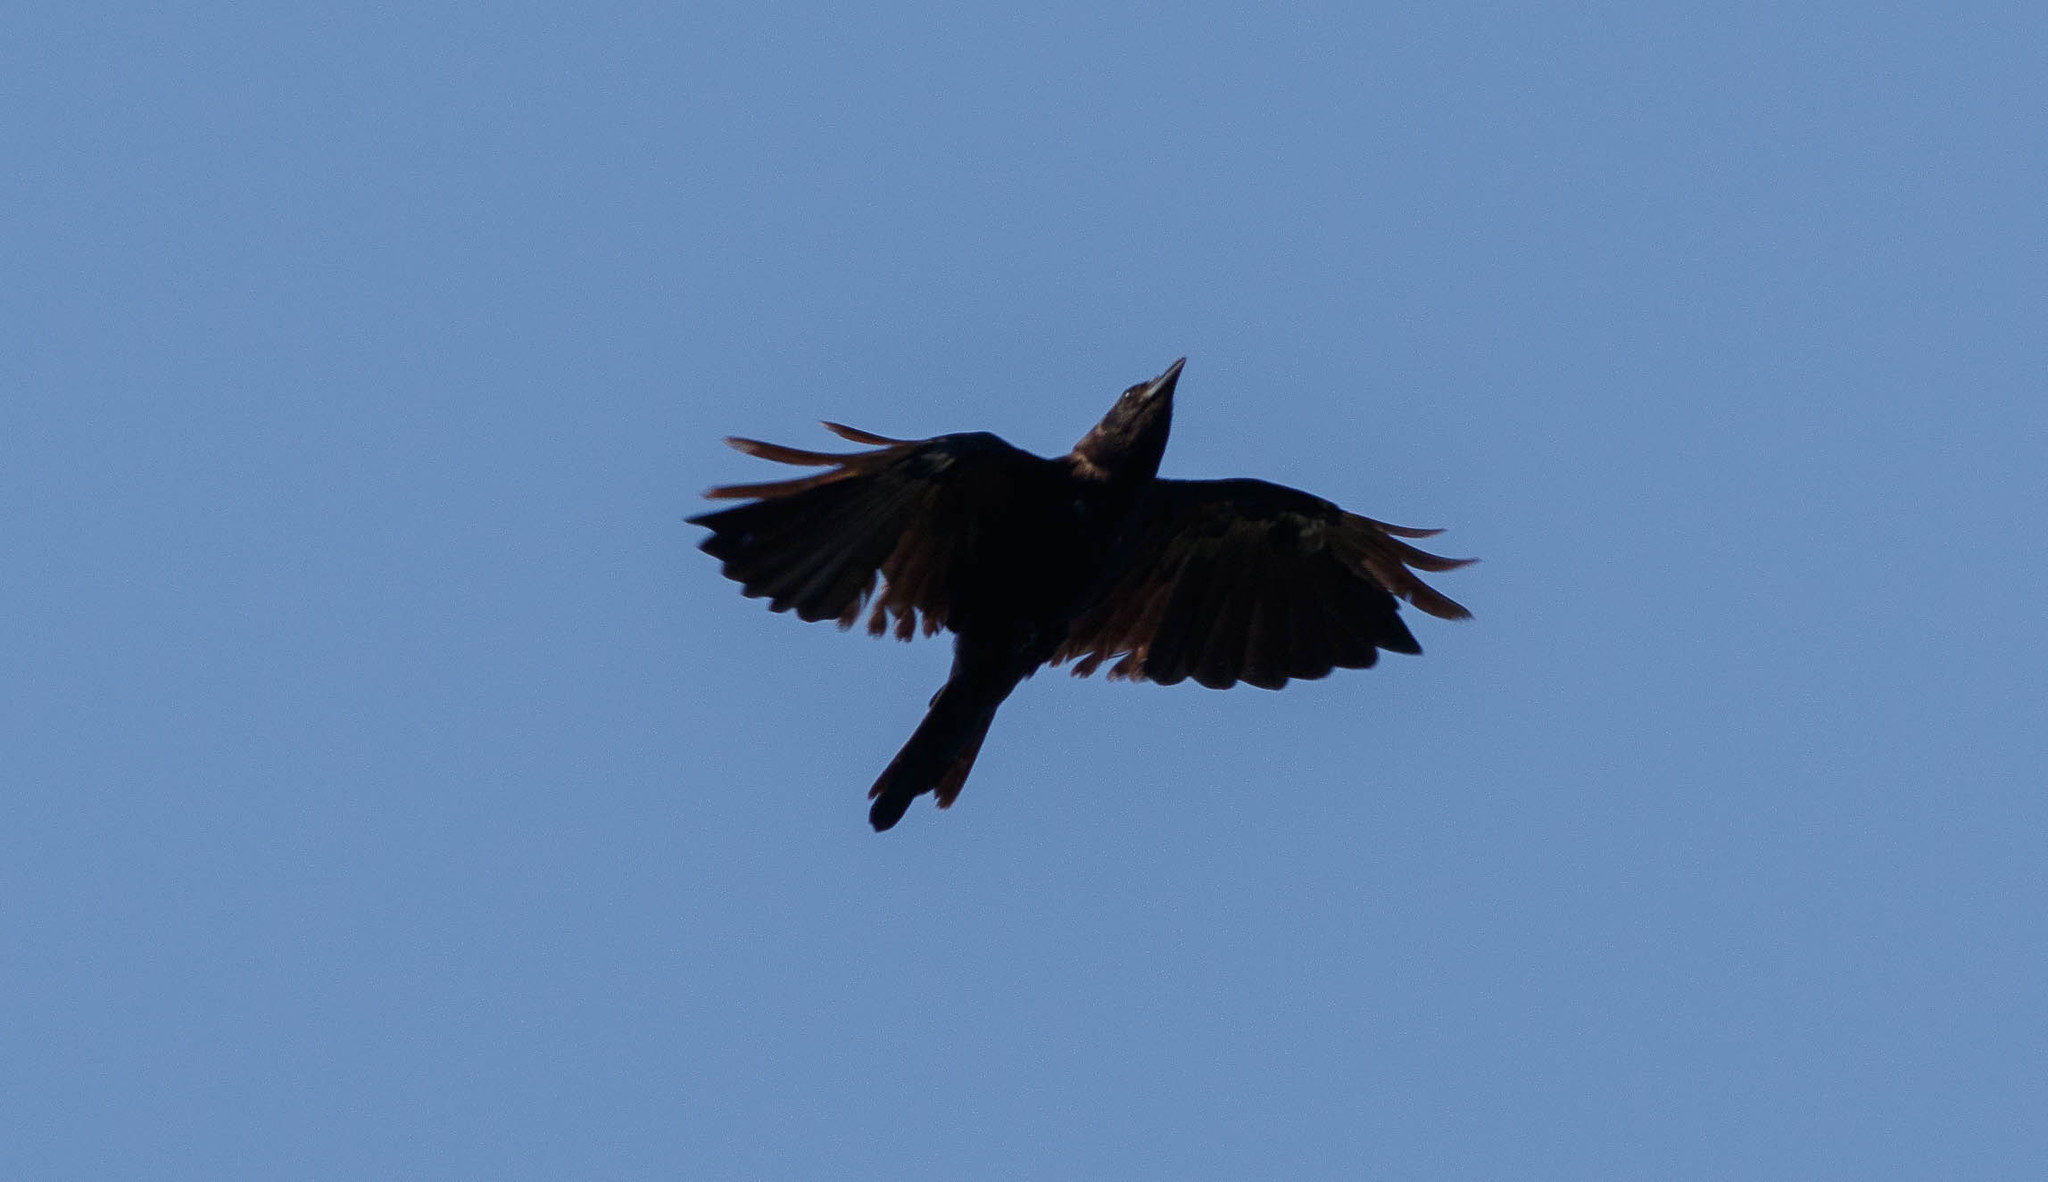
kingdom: Animalia
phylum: Chordata
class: Aves
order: Passeriformes
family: Corvidae
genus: Corvus
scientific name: Corvus ossifragus
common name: Fish crow
